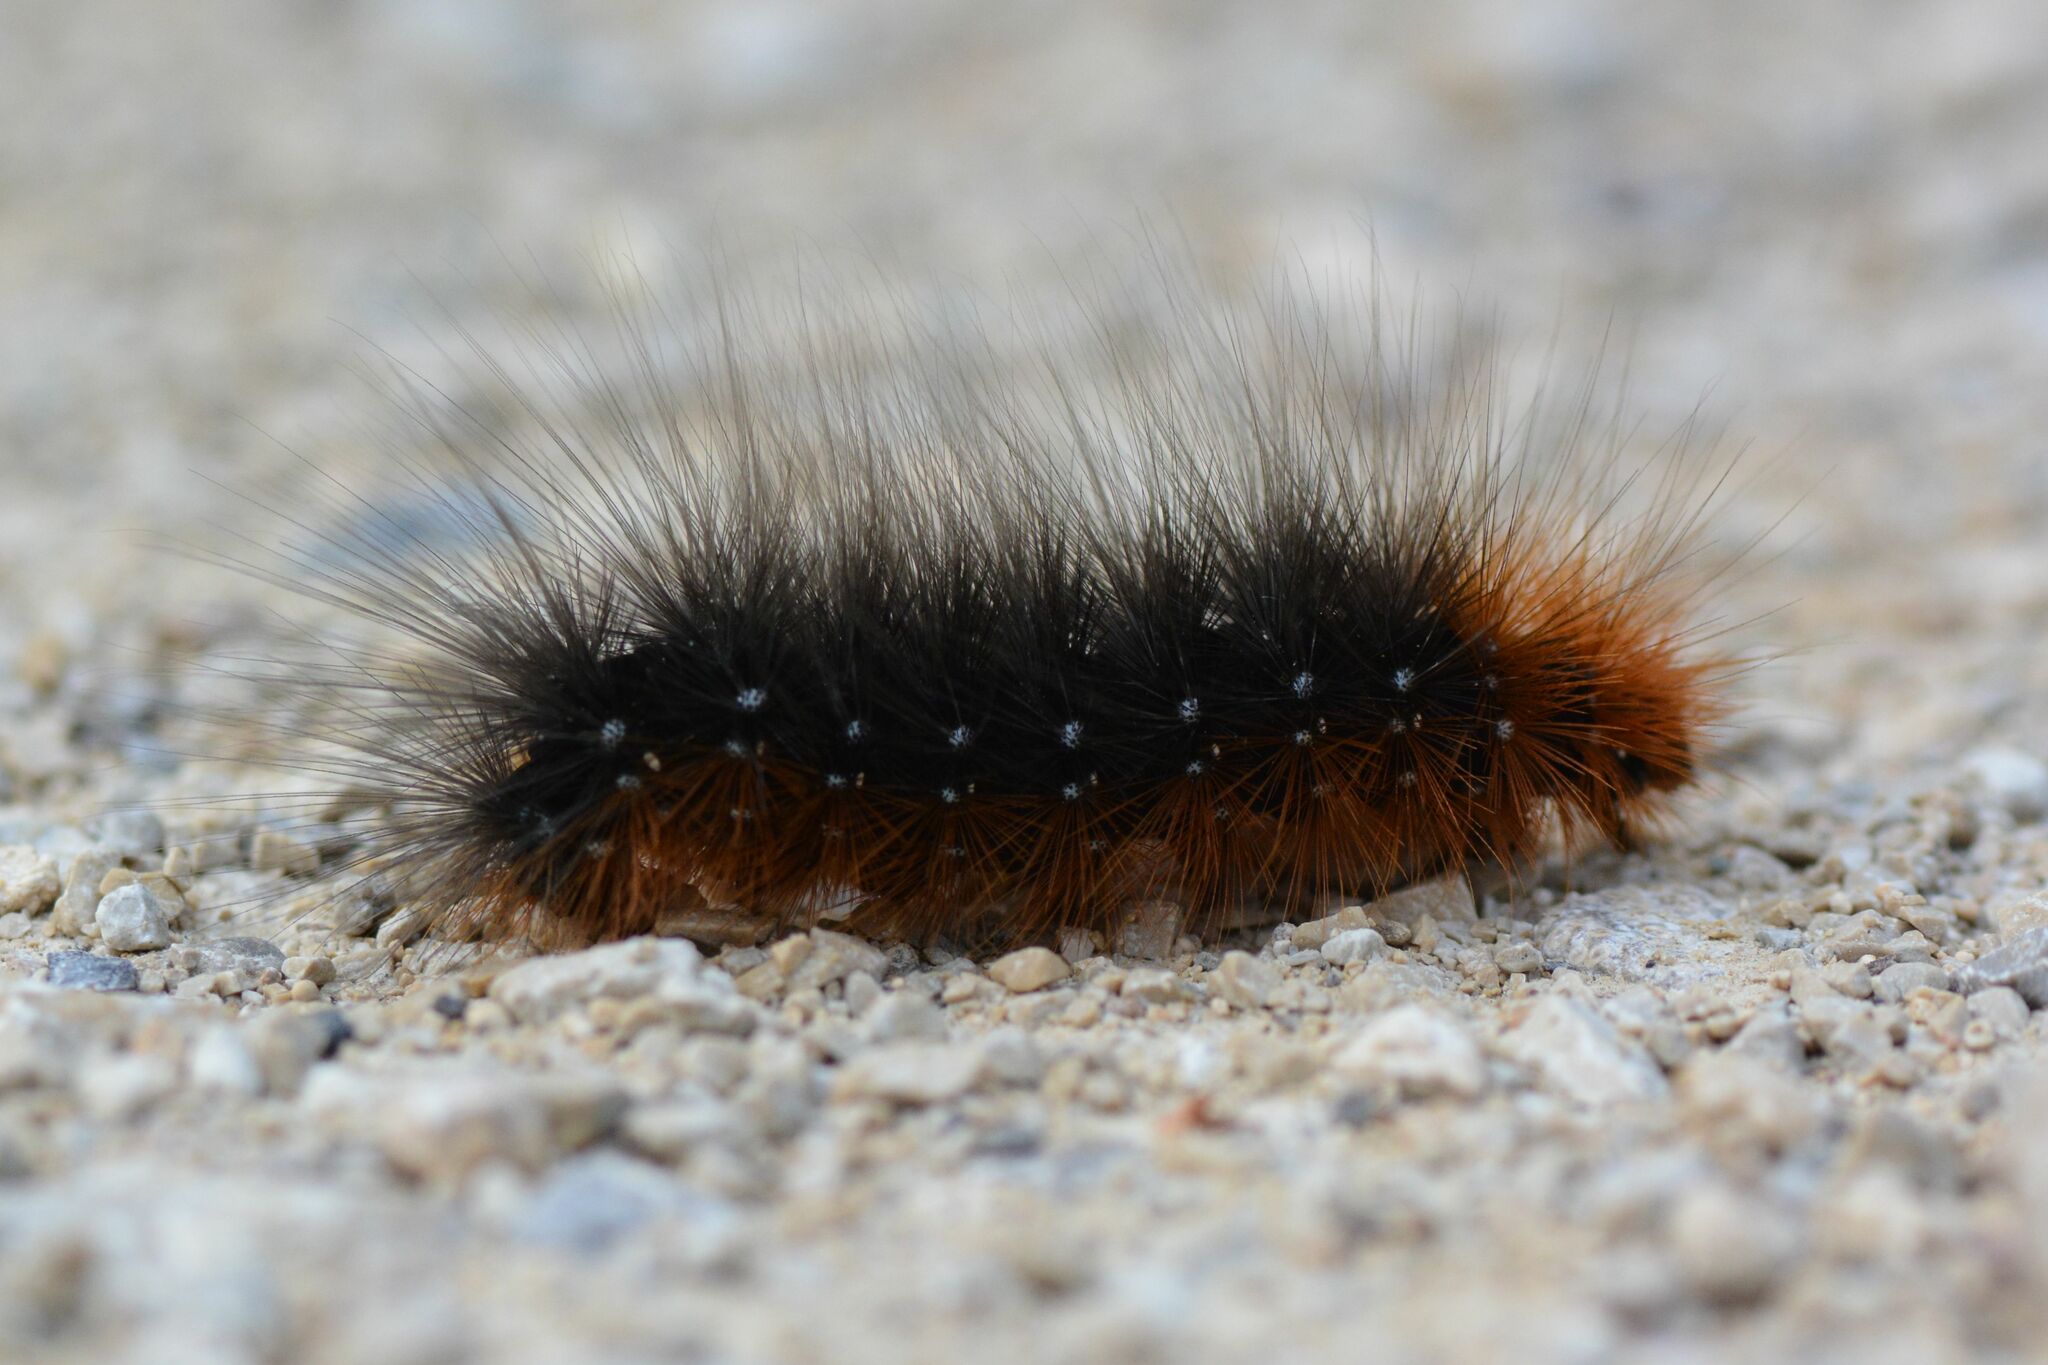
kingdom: Animalia
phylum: Arthropoda
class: Insecta
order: Lepidoptera
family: Erebidae
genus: Arctia
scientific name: Arctia caja
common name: Garden tiger
